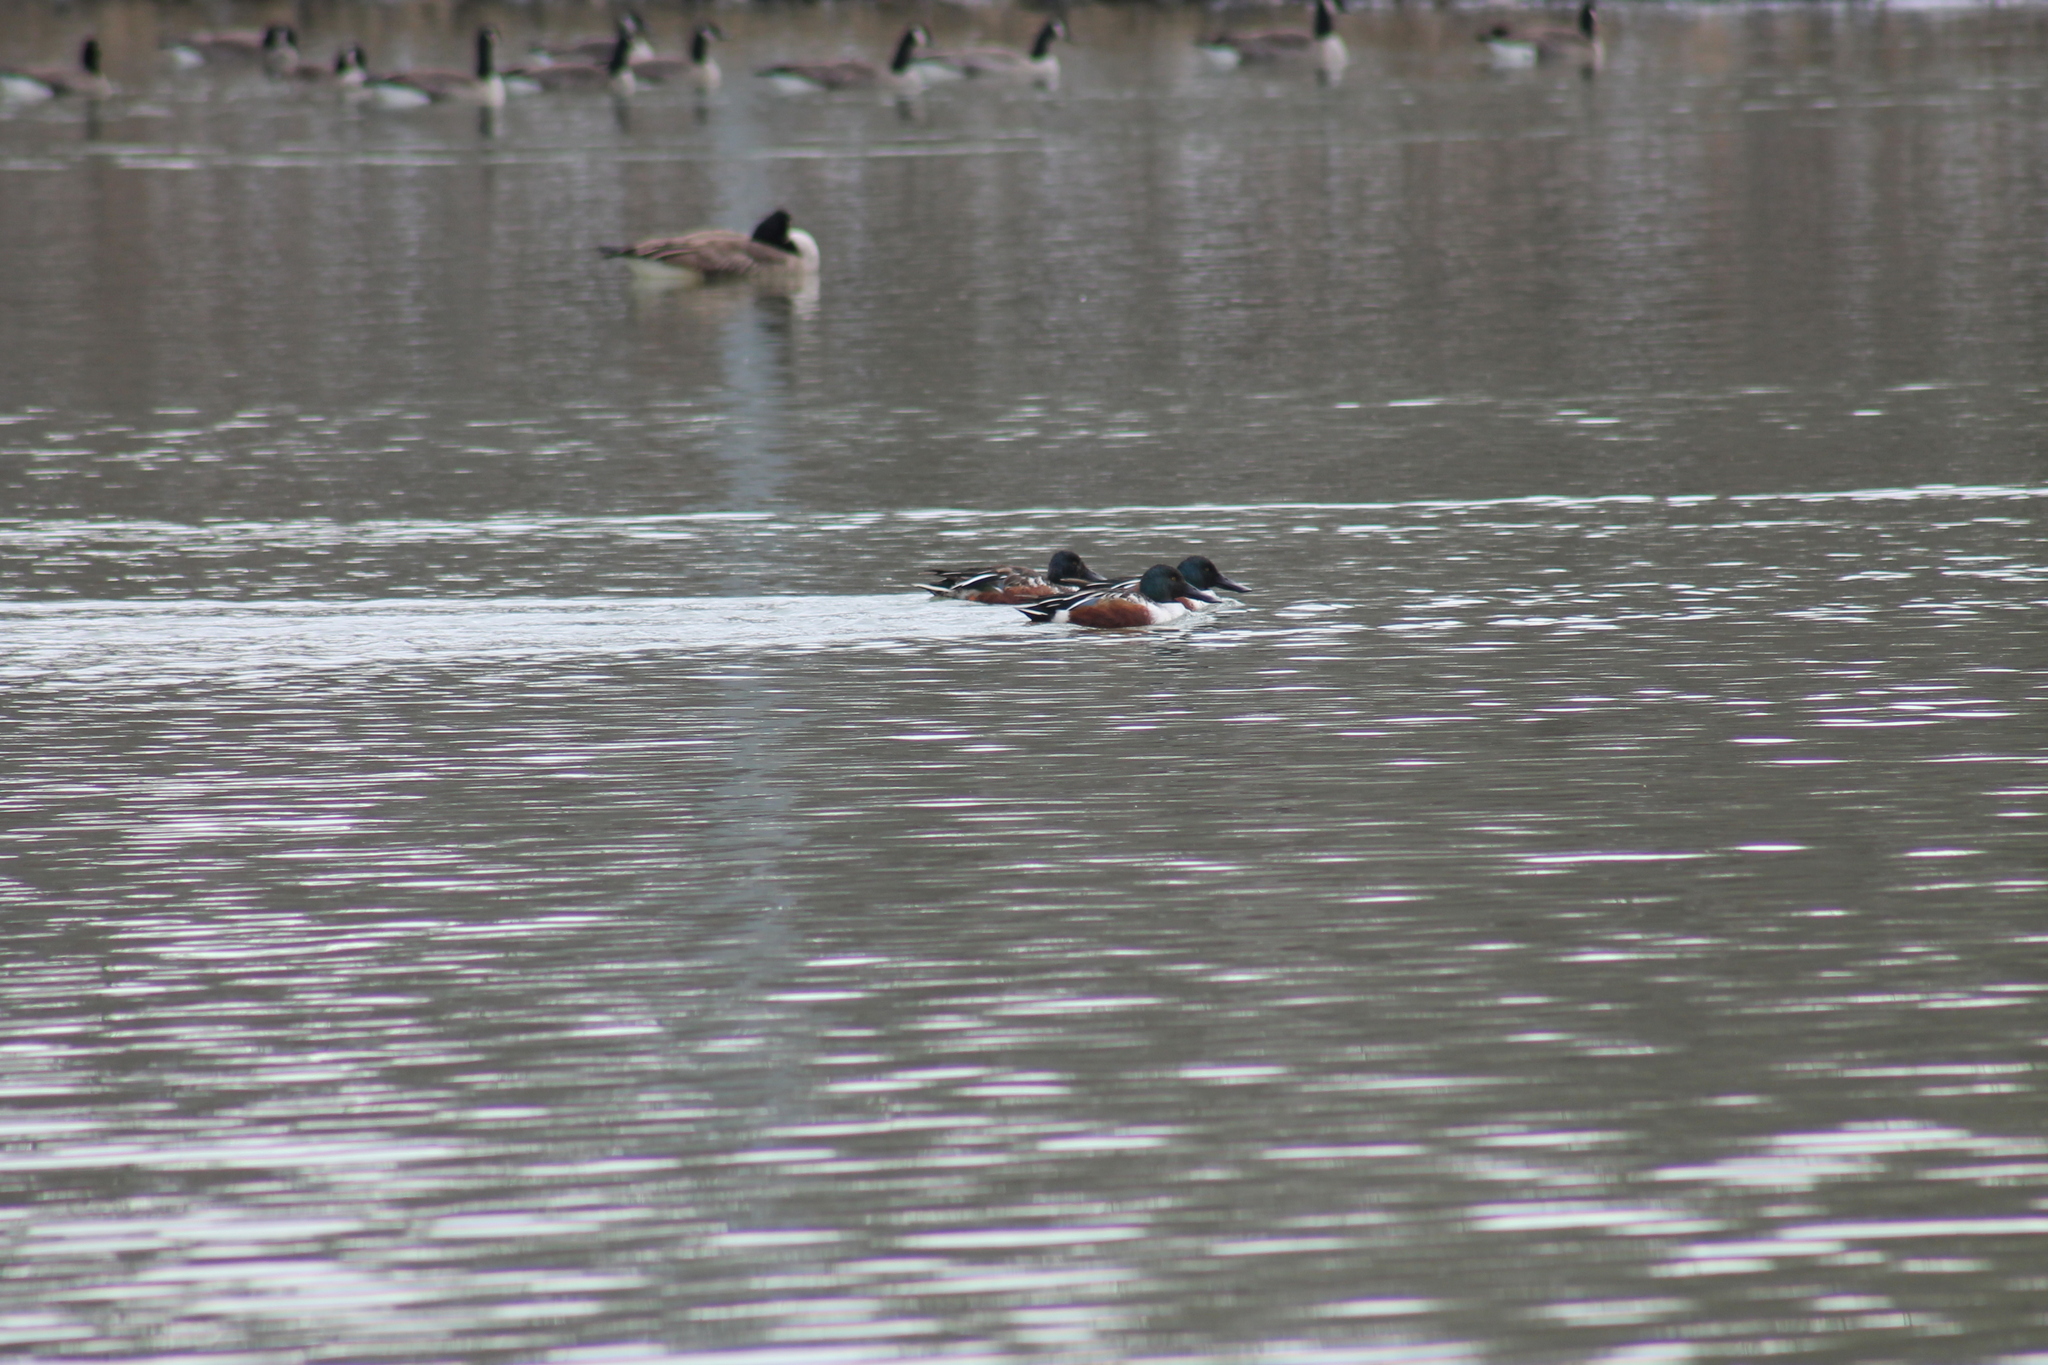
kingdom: Animalia
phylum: Chordata
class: Aves
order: Anseriformes
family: Anatidae
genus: Spatula
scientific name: Spatula clypeata
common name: Northern shoveler
